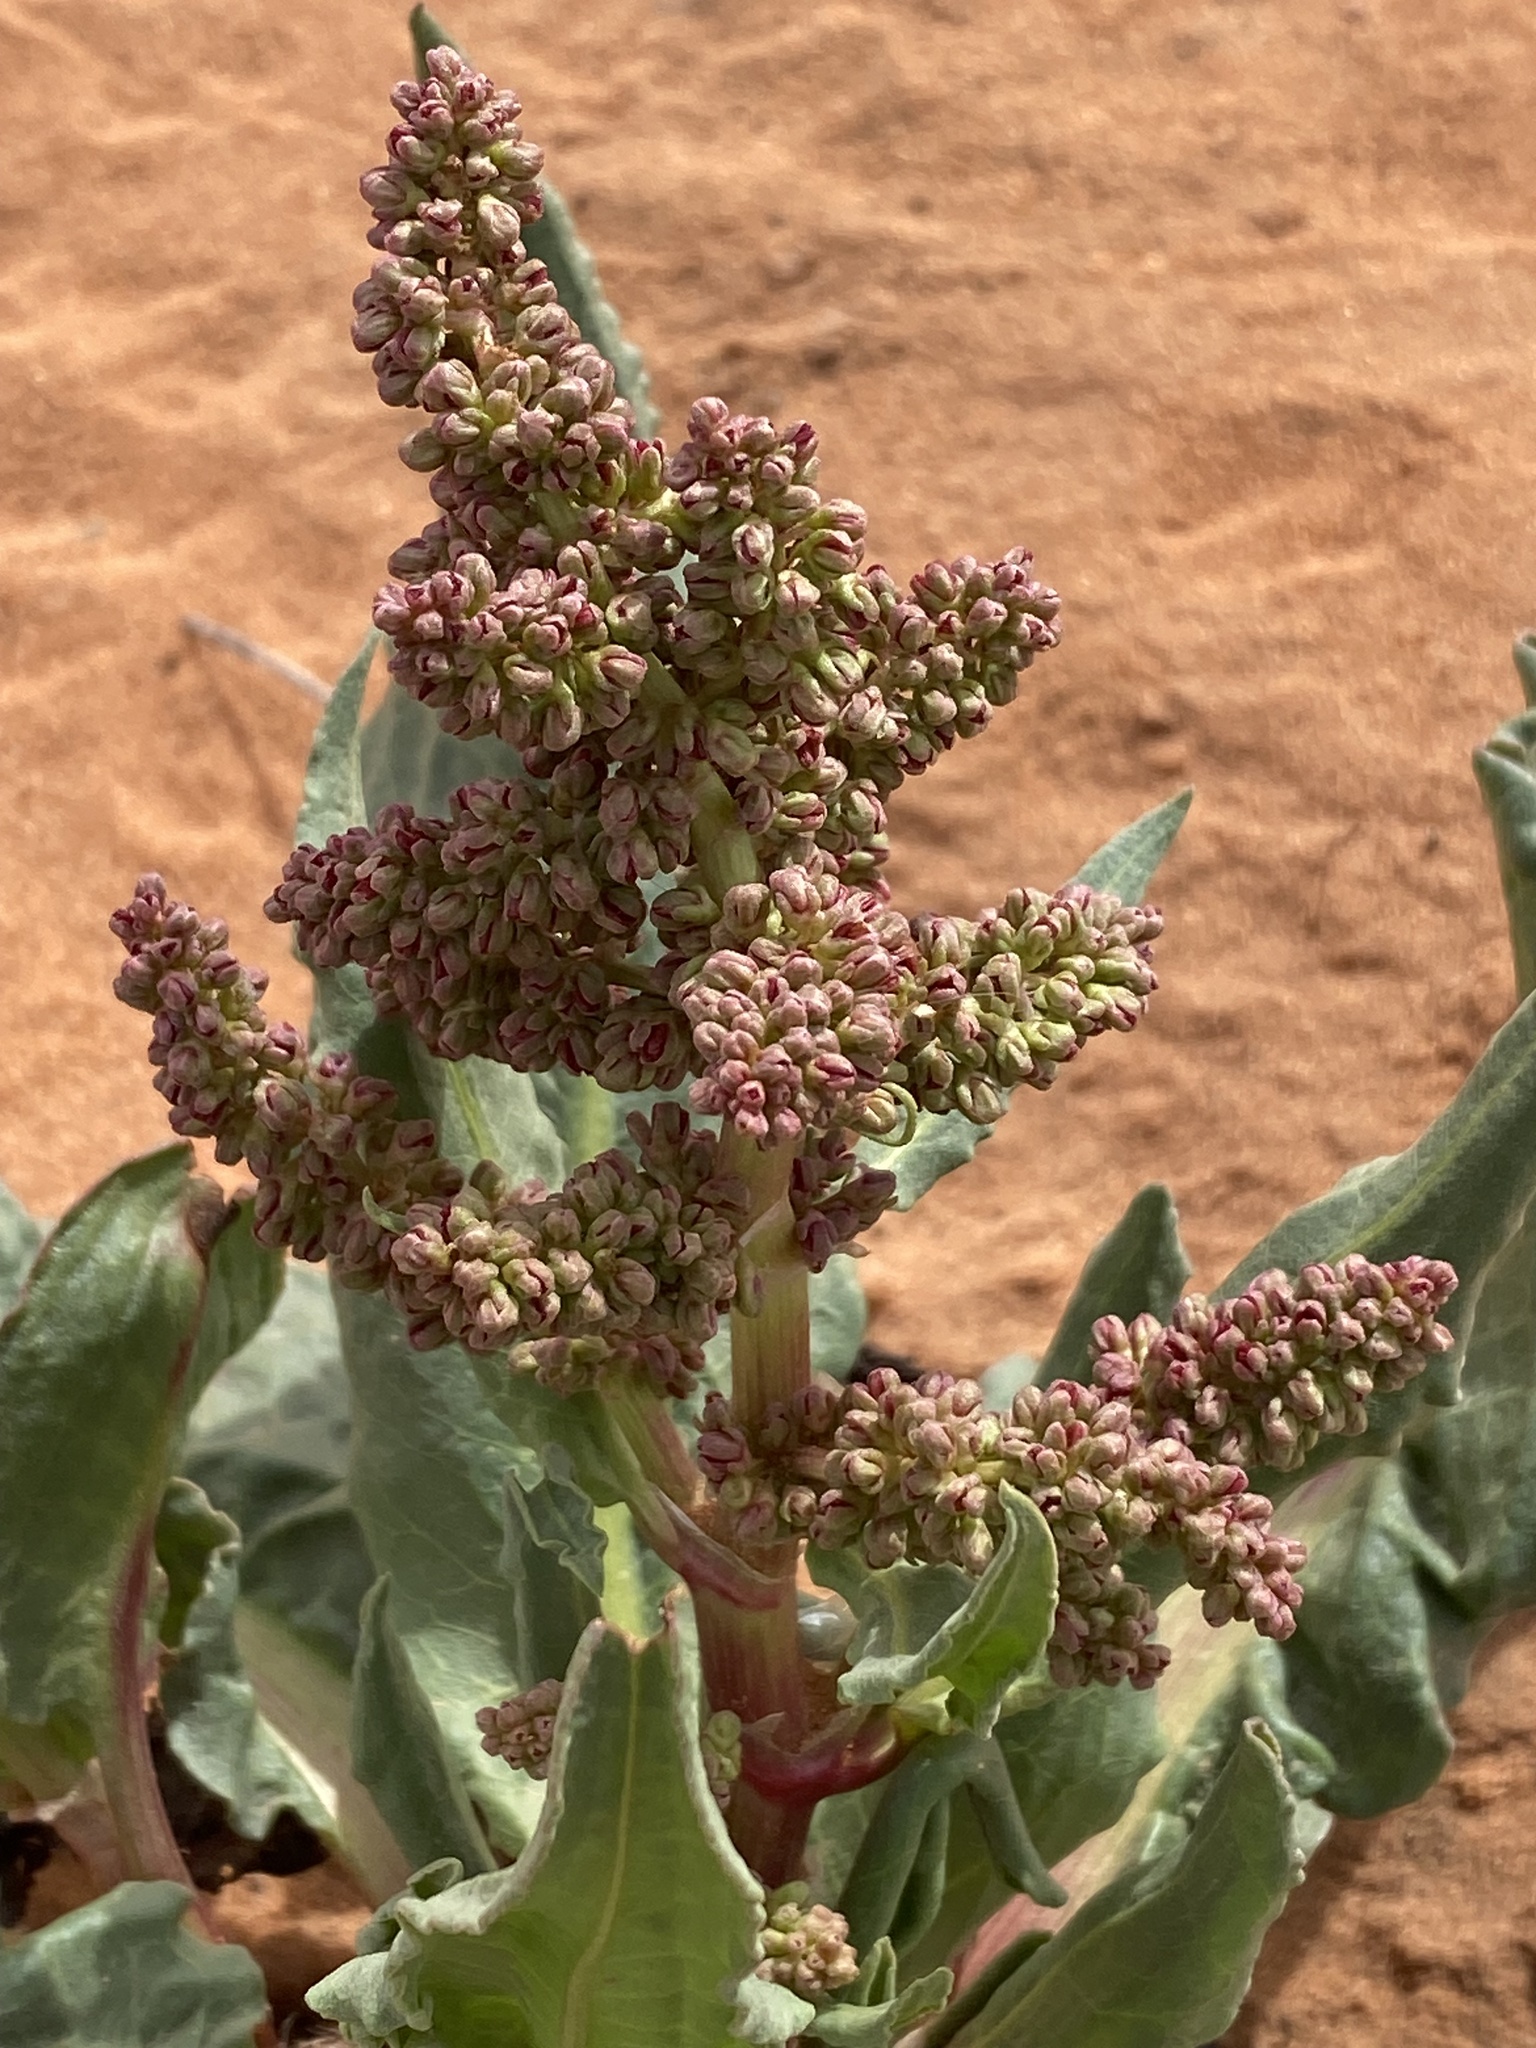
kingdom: Plantae
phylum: Tracheophyta
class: Magnoliopsida
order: Caryophyllales
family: Polygonaceae
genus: Rumex
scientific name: Rumex hymenosepalus
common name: Ganagra
